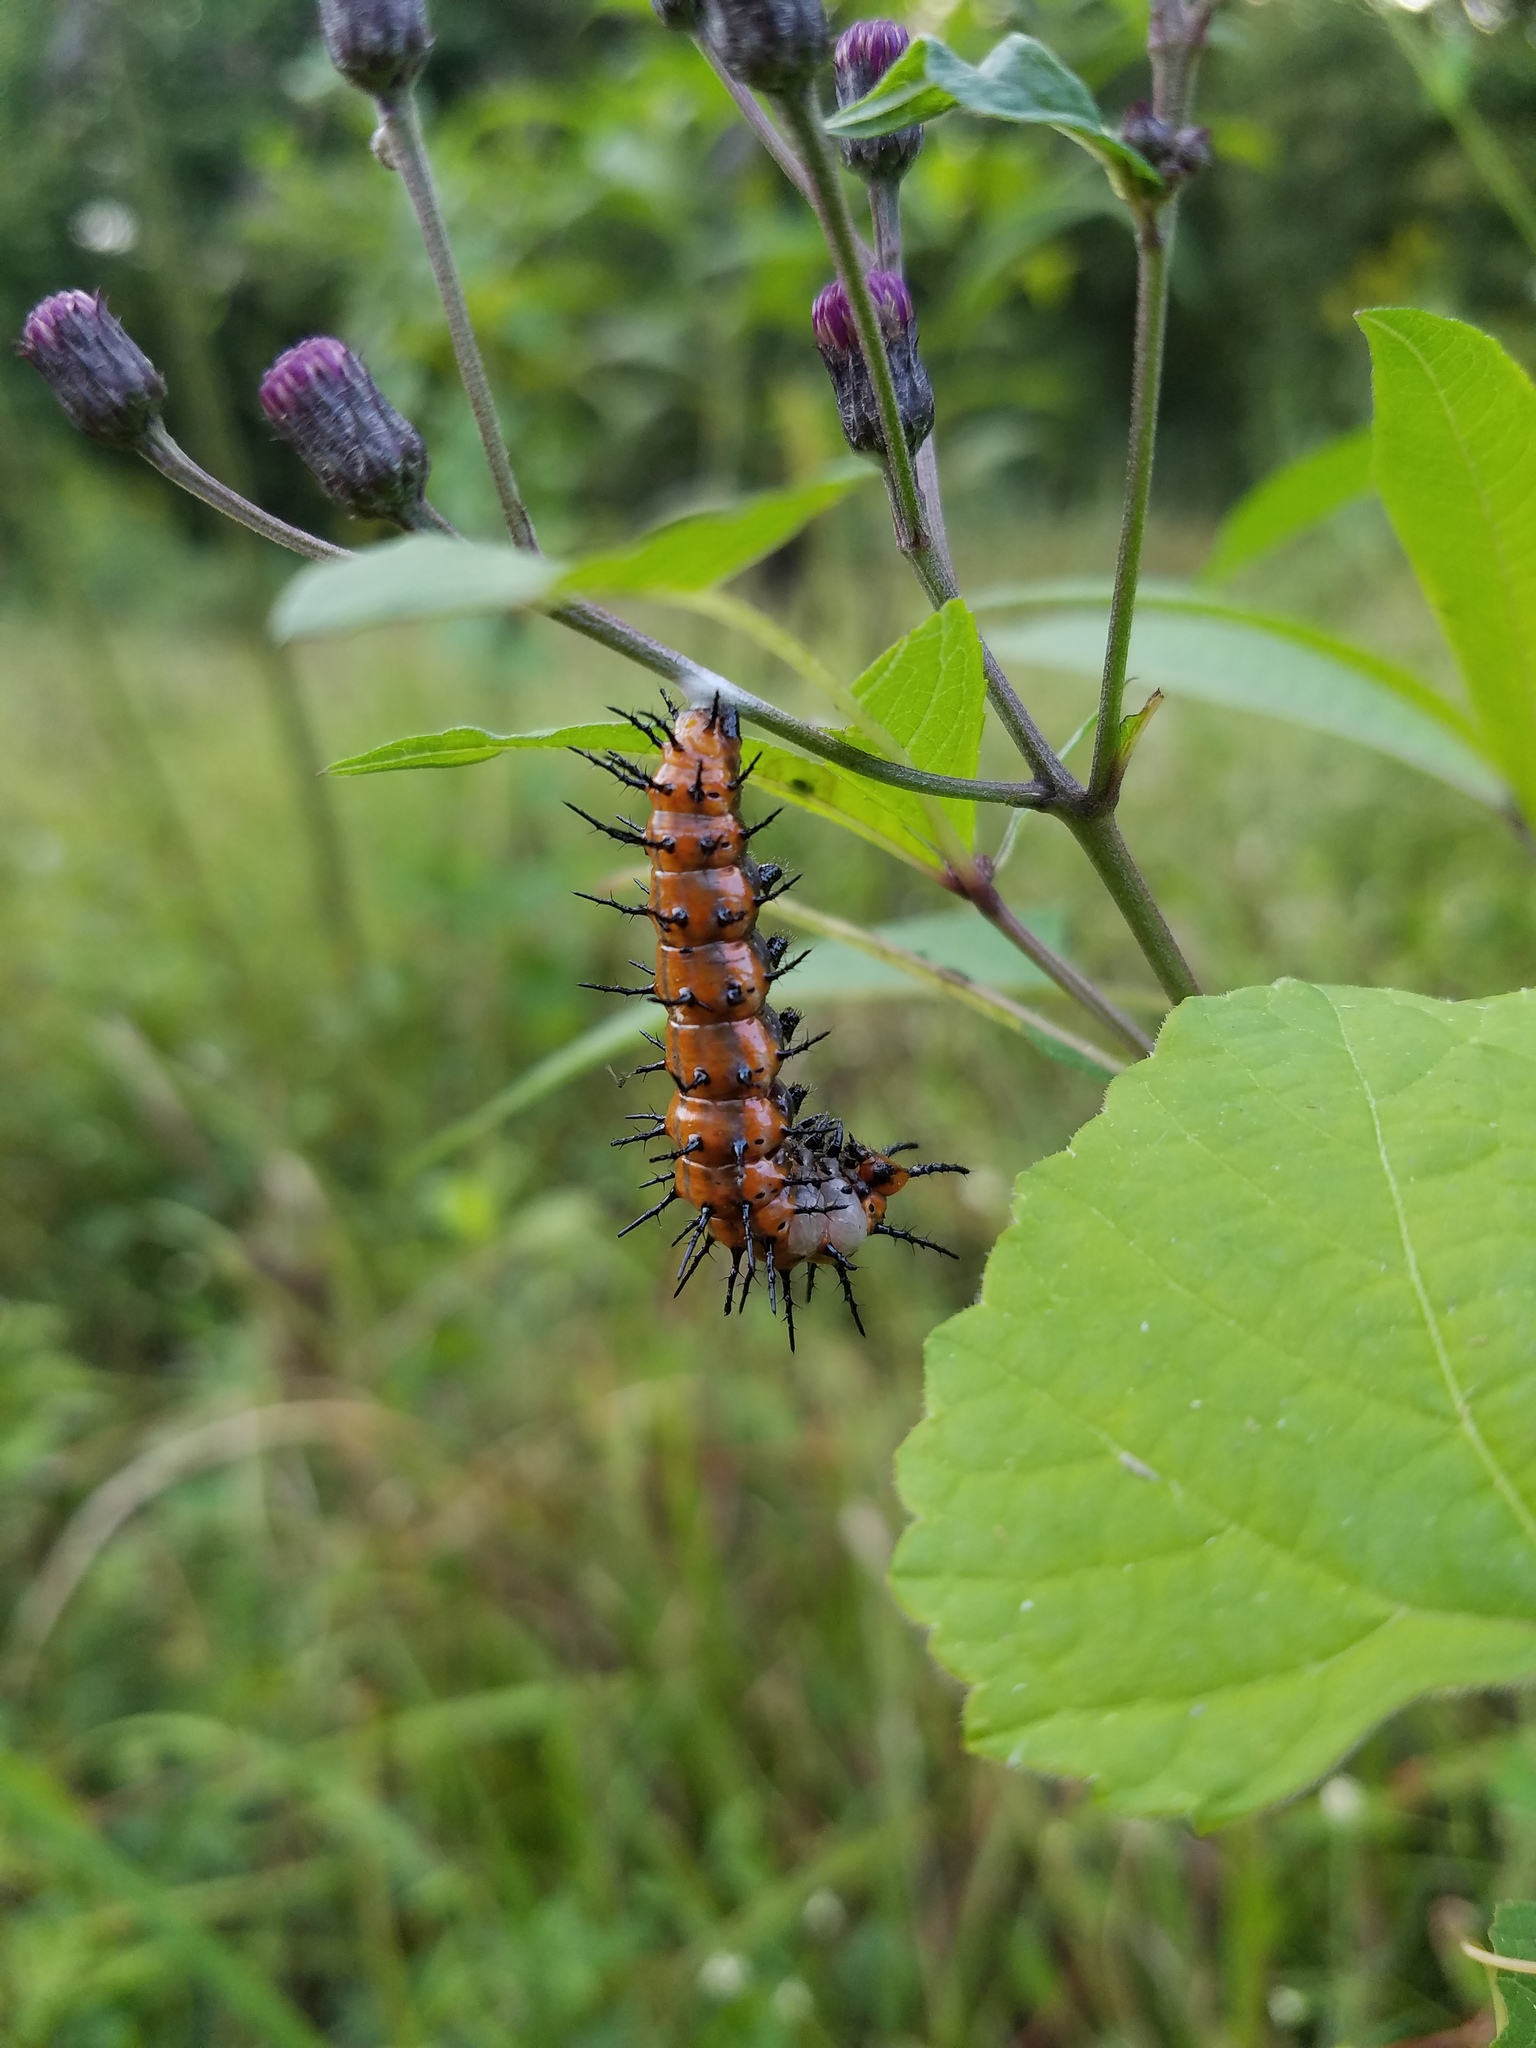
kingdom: Animalia
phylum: Arthropoda
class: Insecta
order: Lepidoptera
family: Nymphalidae
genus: Dione
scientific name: Dione vanillae
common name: Gulf fritillary
